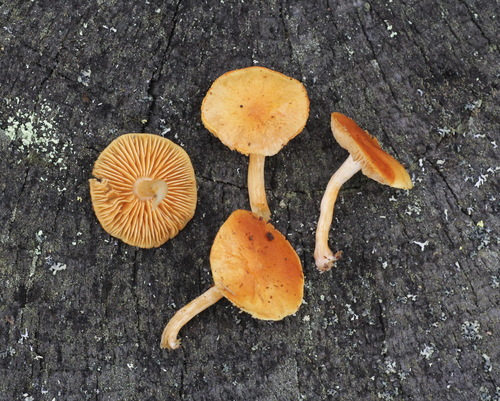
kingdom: Fungi
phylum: Basidiomycota
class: Agaricomycetes
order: Agaricales
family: Hymenogastraceae
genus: Gymnopilus
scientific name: Gymnopilus penetrans
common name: Common rustgill
